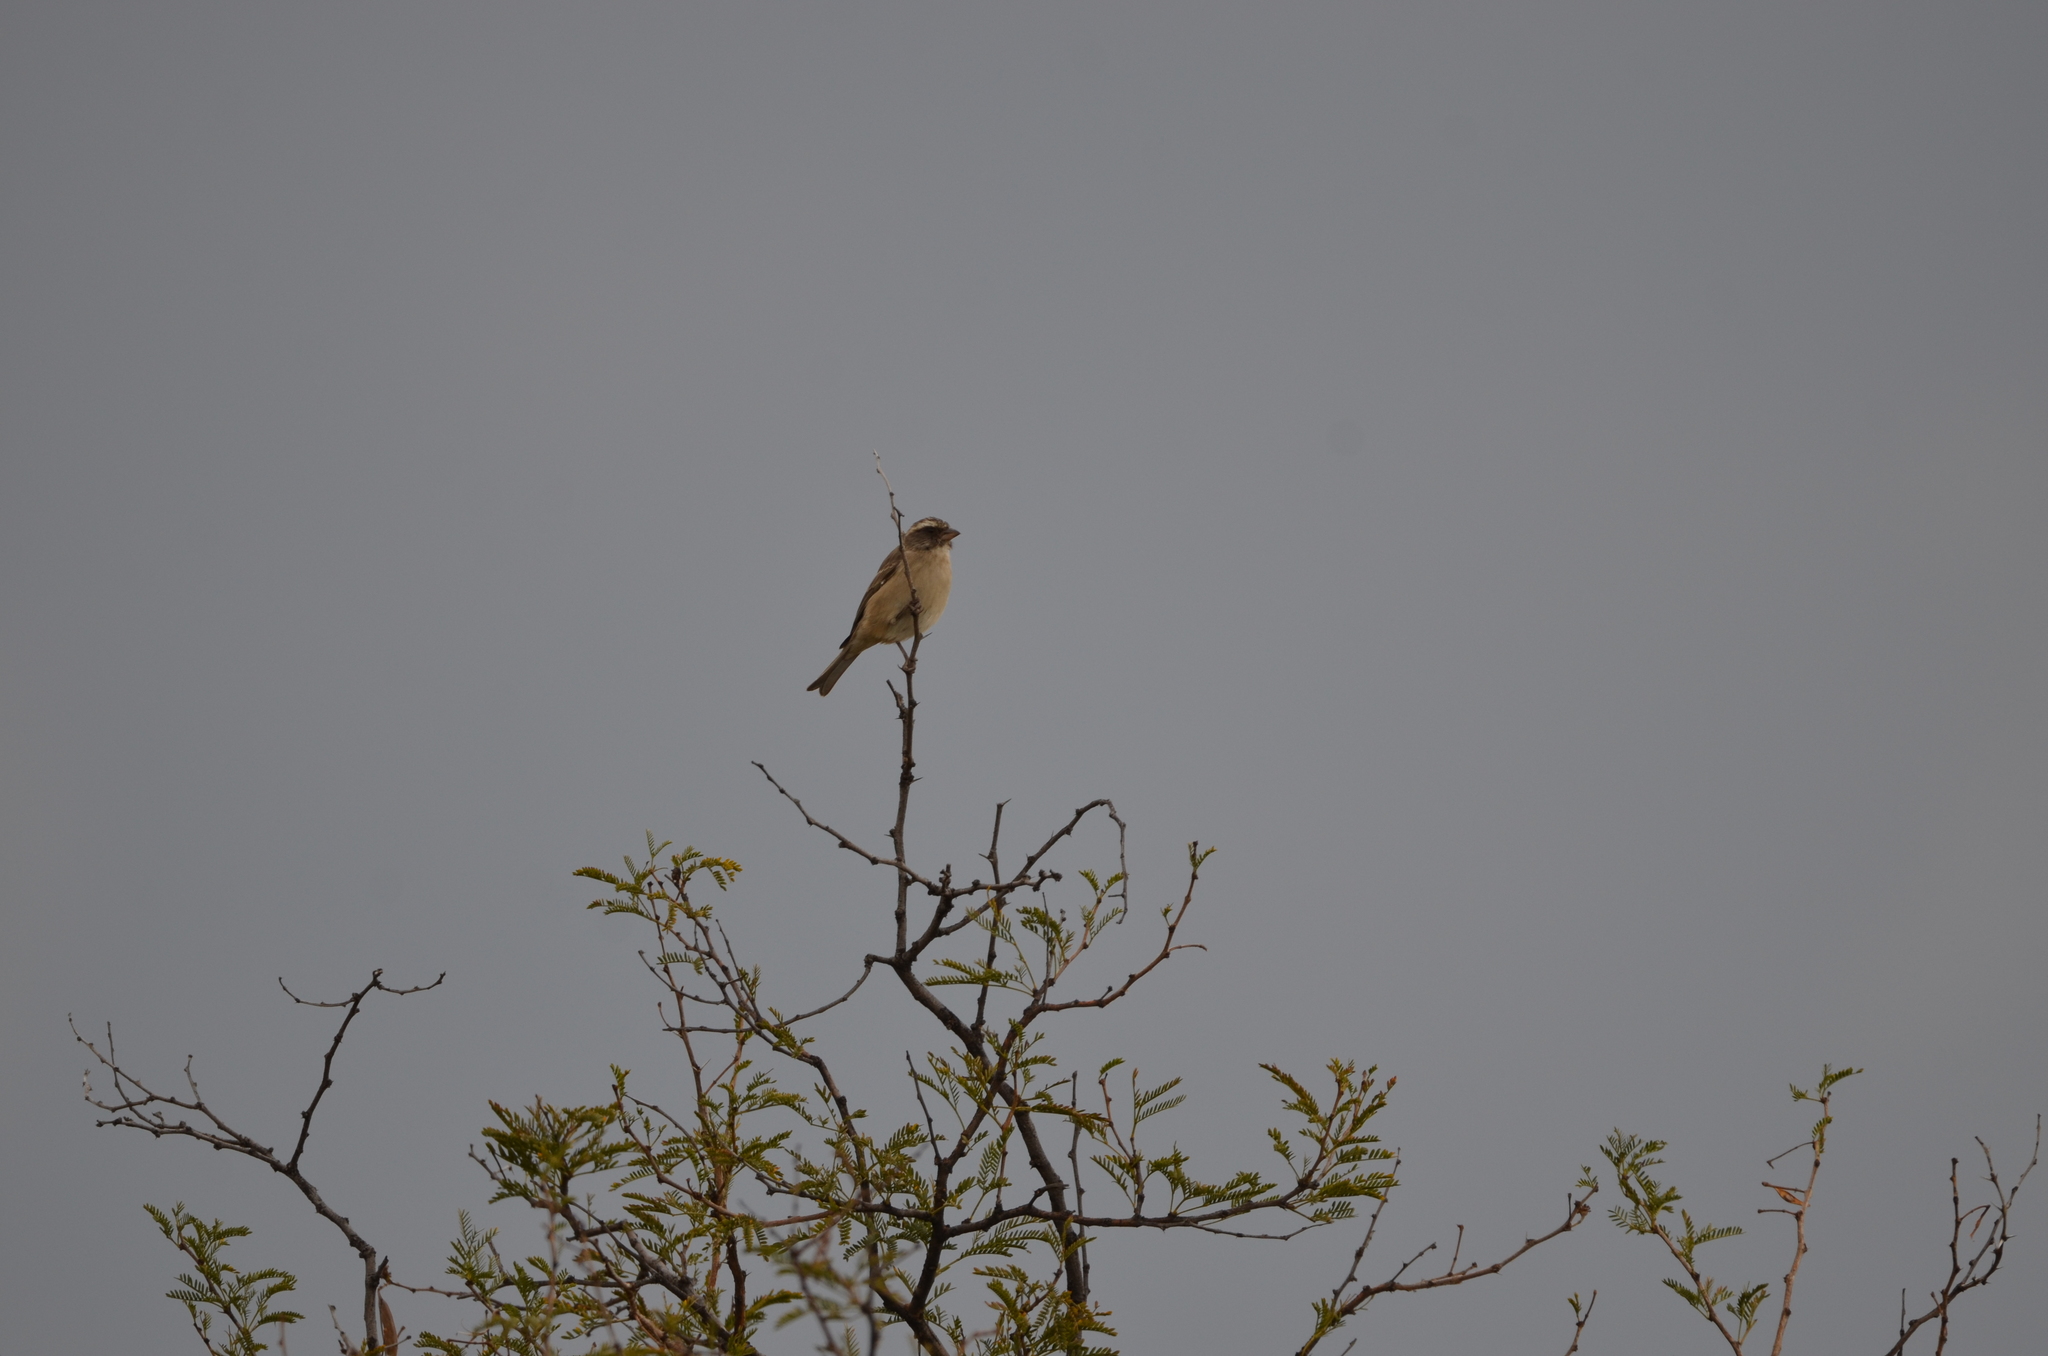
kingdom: Animalia
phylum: Chordata
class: Aves
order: Passeriformes
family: Fringillidae
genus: Crithagra
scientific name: Crithagra gularis
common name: Streaky-headed seedeater
